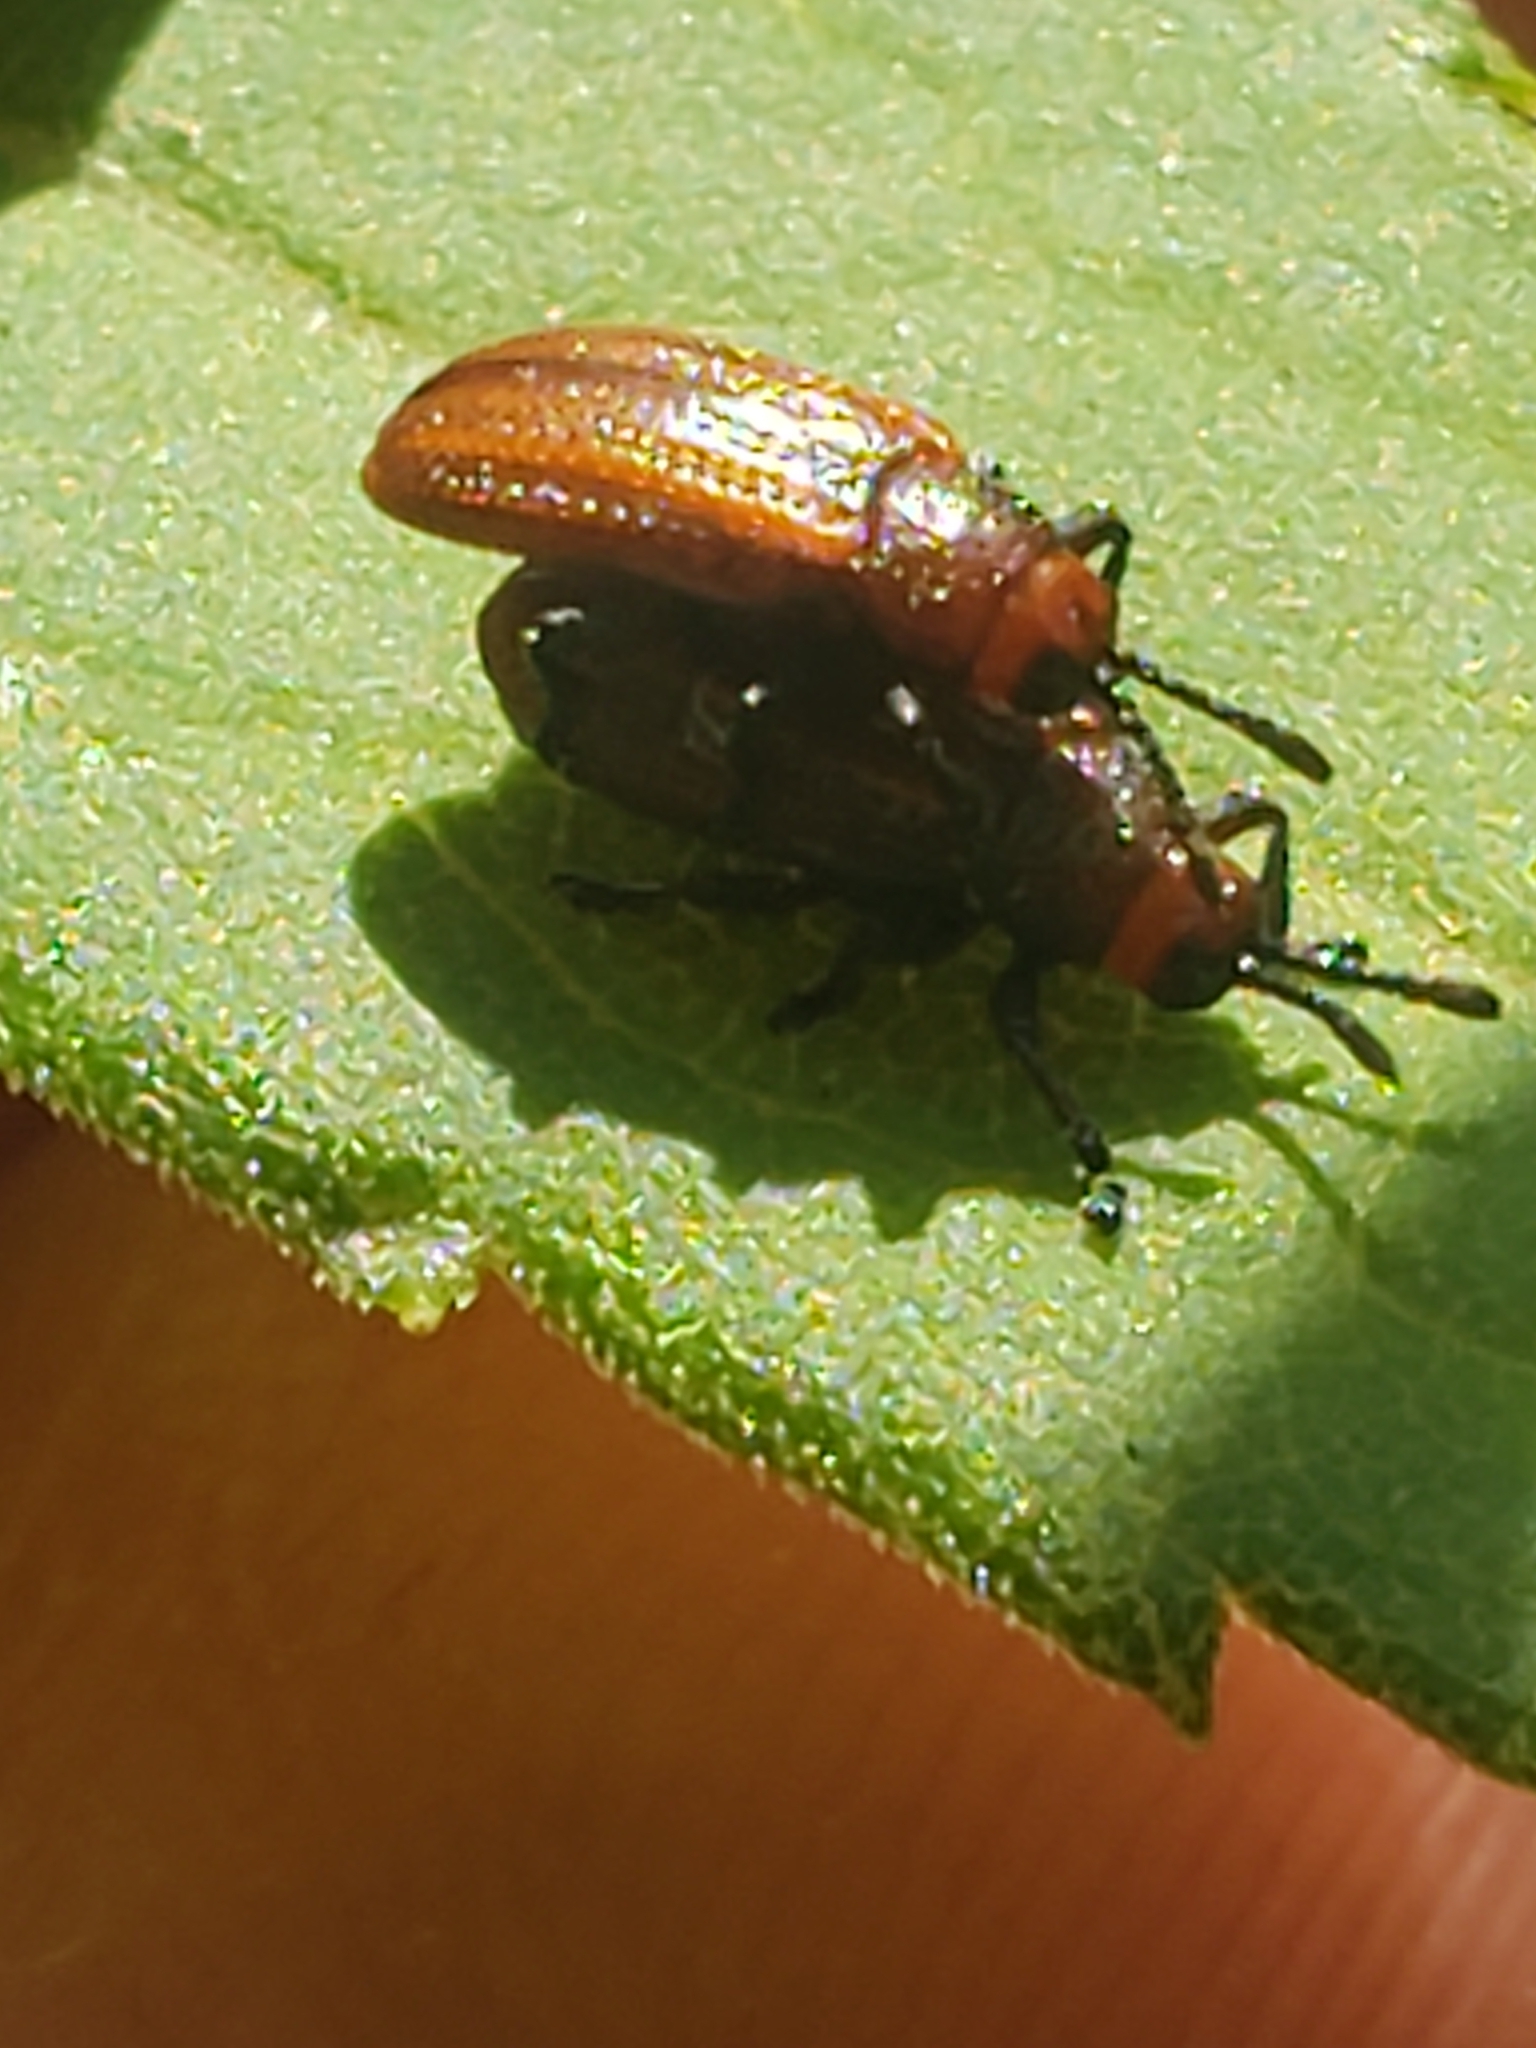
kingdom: Animalia
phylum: Arthropoda
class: Insecta
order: Coleoptera
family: Chrysomelidae
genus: Microrhopala
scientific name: Microrhopala vittata
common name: Goldenrod leaf miner beetle
